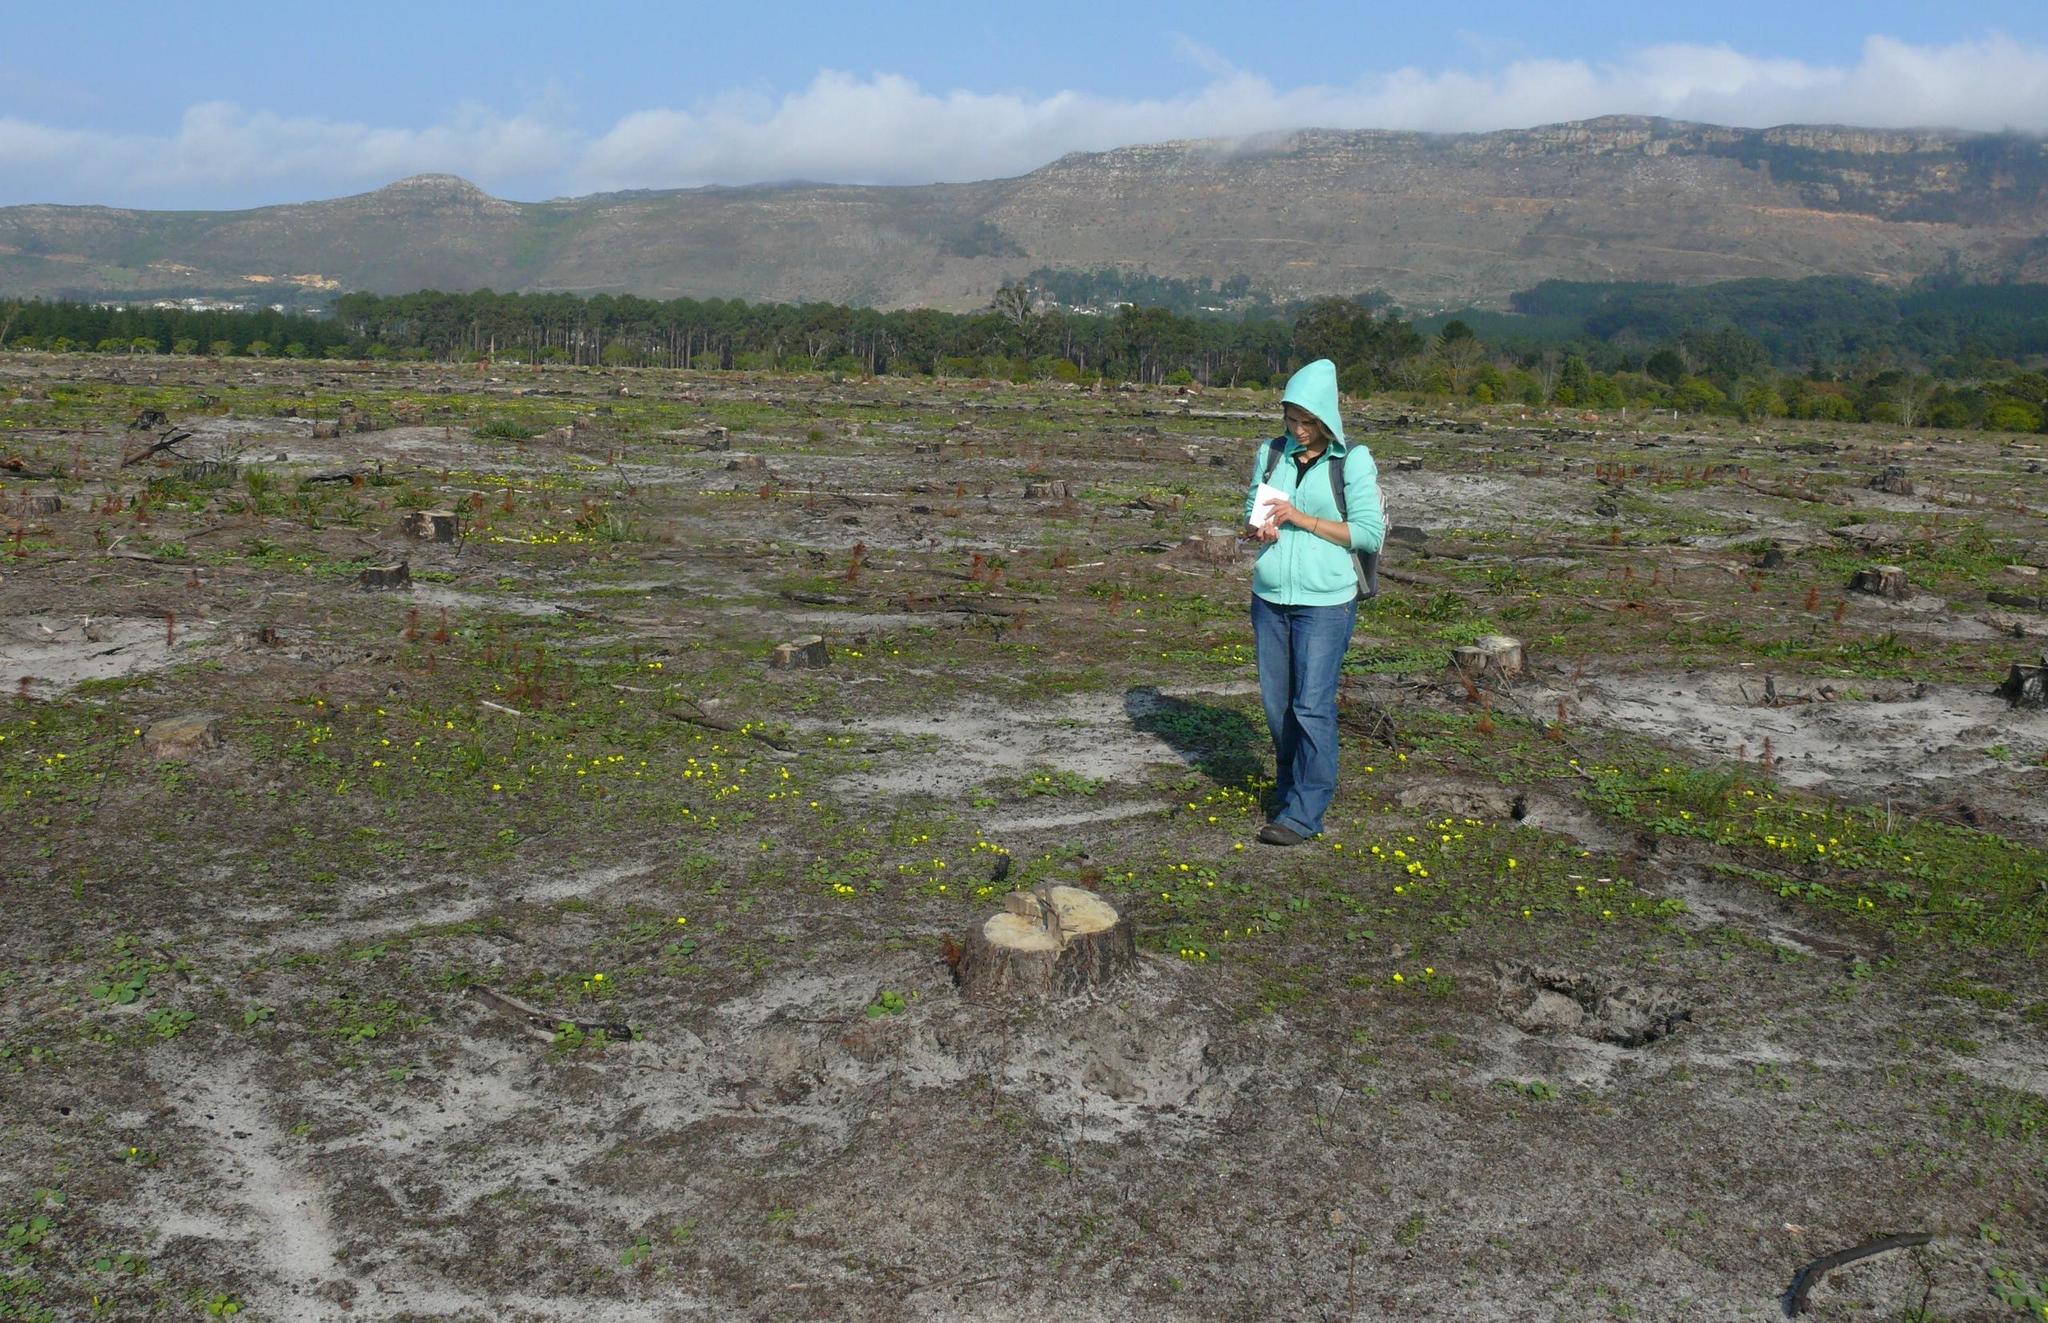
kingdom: Plantae
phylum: Tracheophyta
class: Magnoliopsida
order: Oxalidales
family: Oxalidaceae
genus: Oxalis
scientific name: Oxalis luteola
